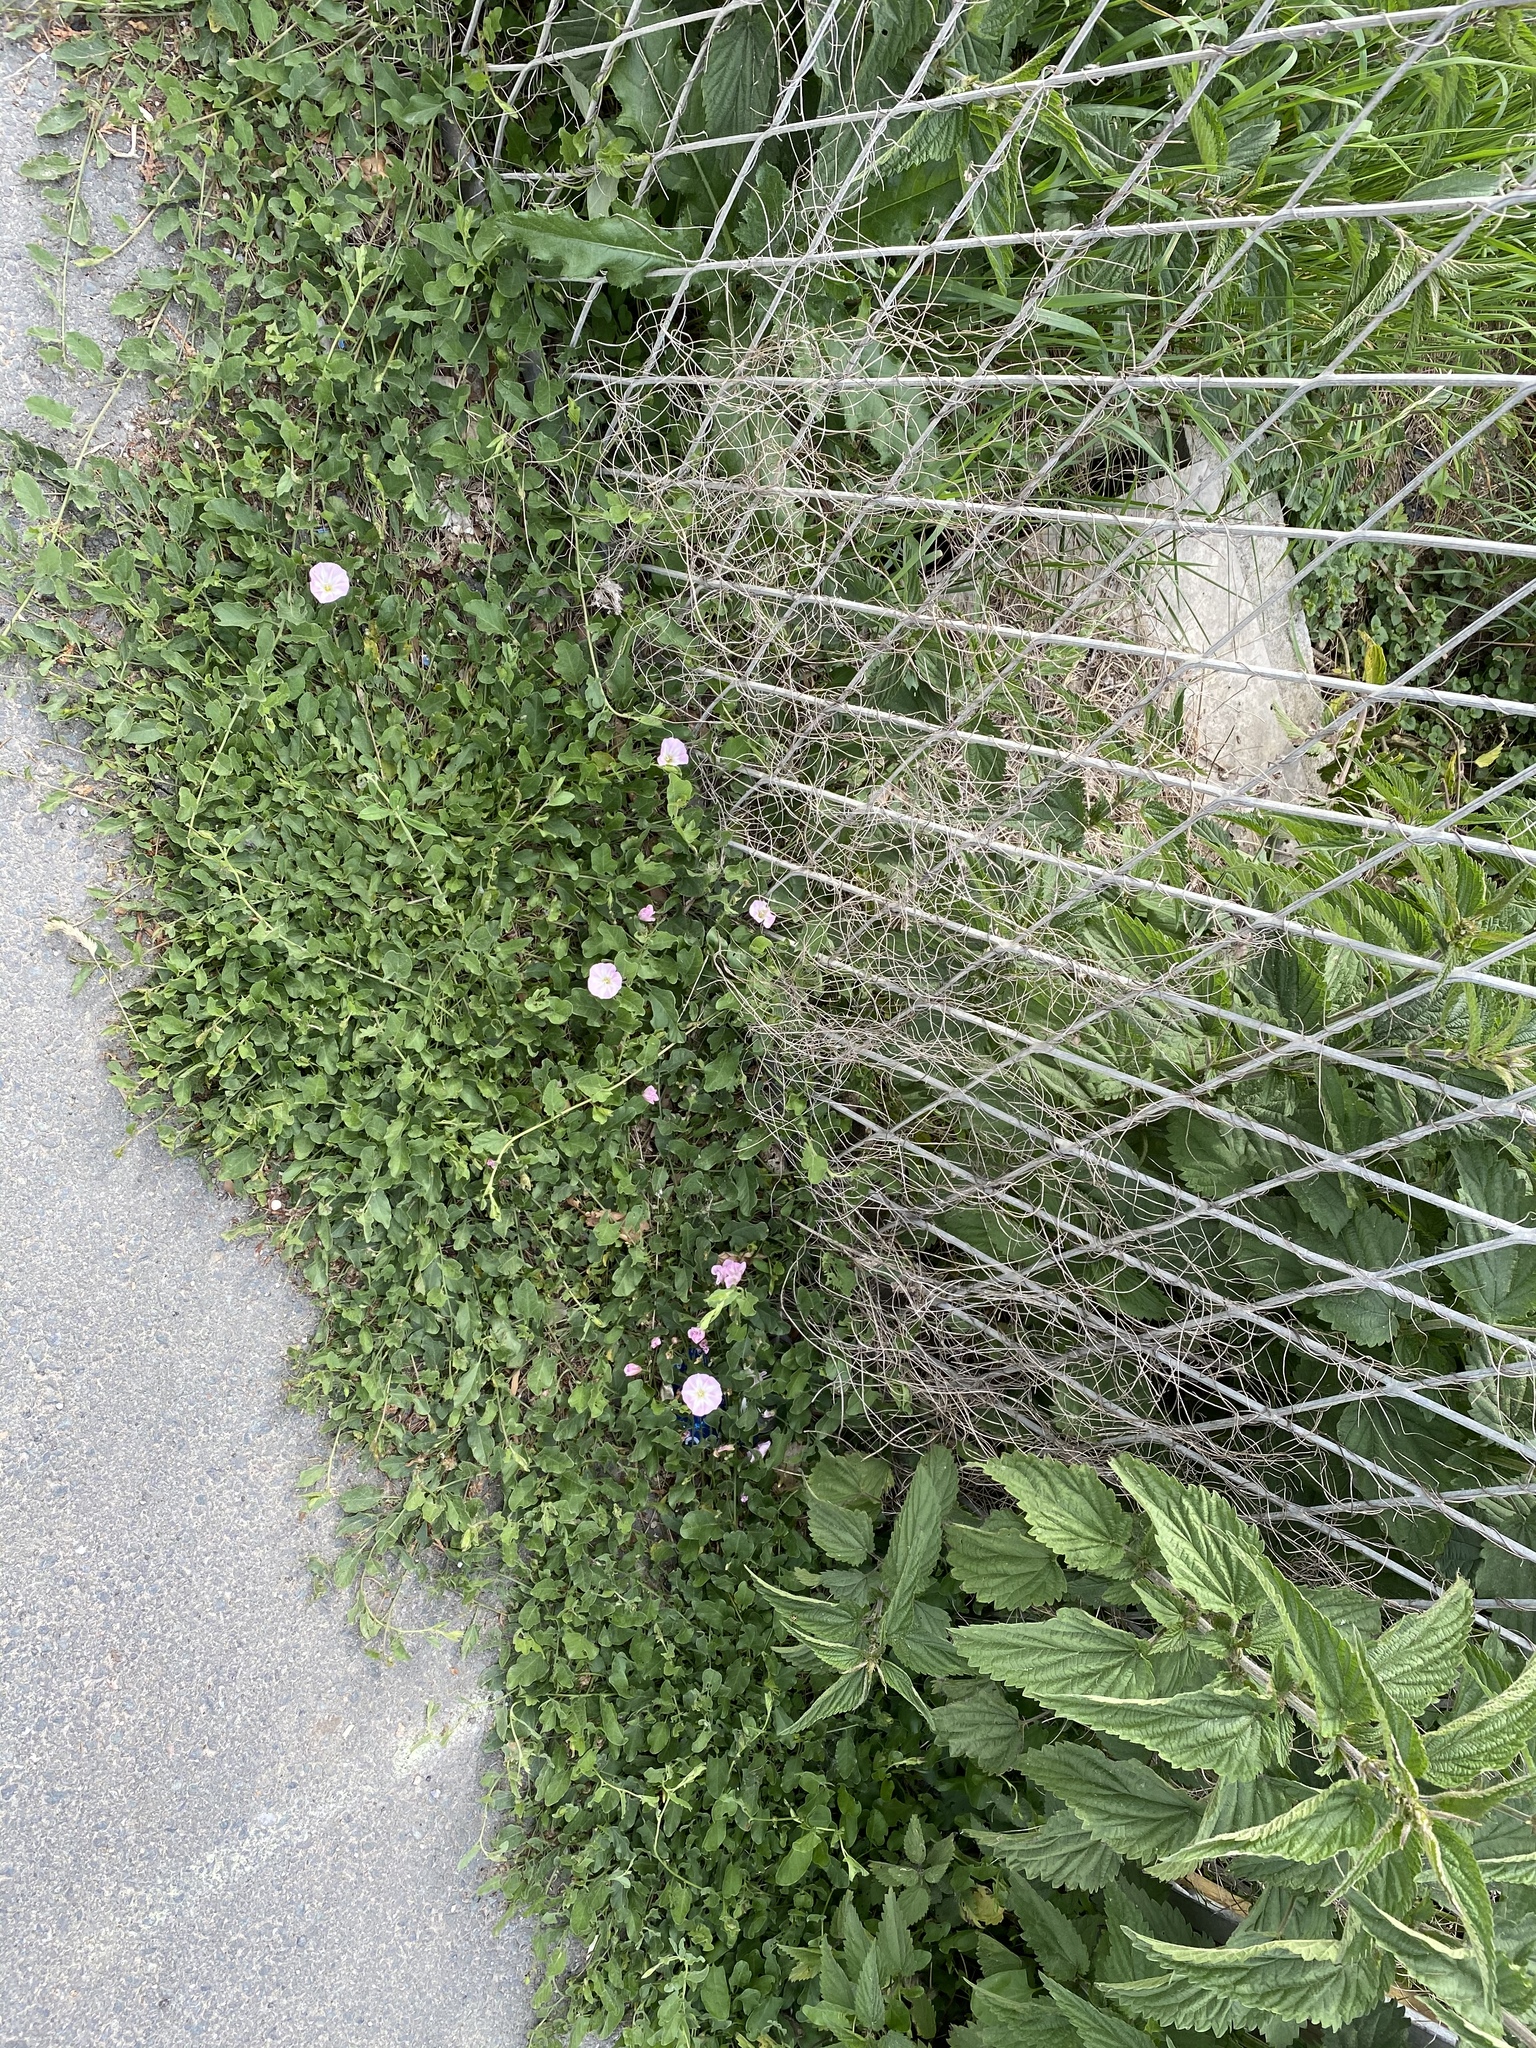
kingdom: Plantae
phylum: Tracheophyta
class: Magnoliopsida
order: Solanales
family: Convolvulaceae
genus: Convolvulus
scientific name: Convolvulus arvensis
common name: Field bindweed
